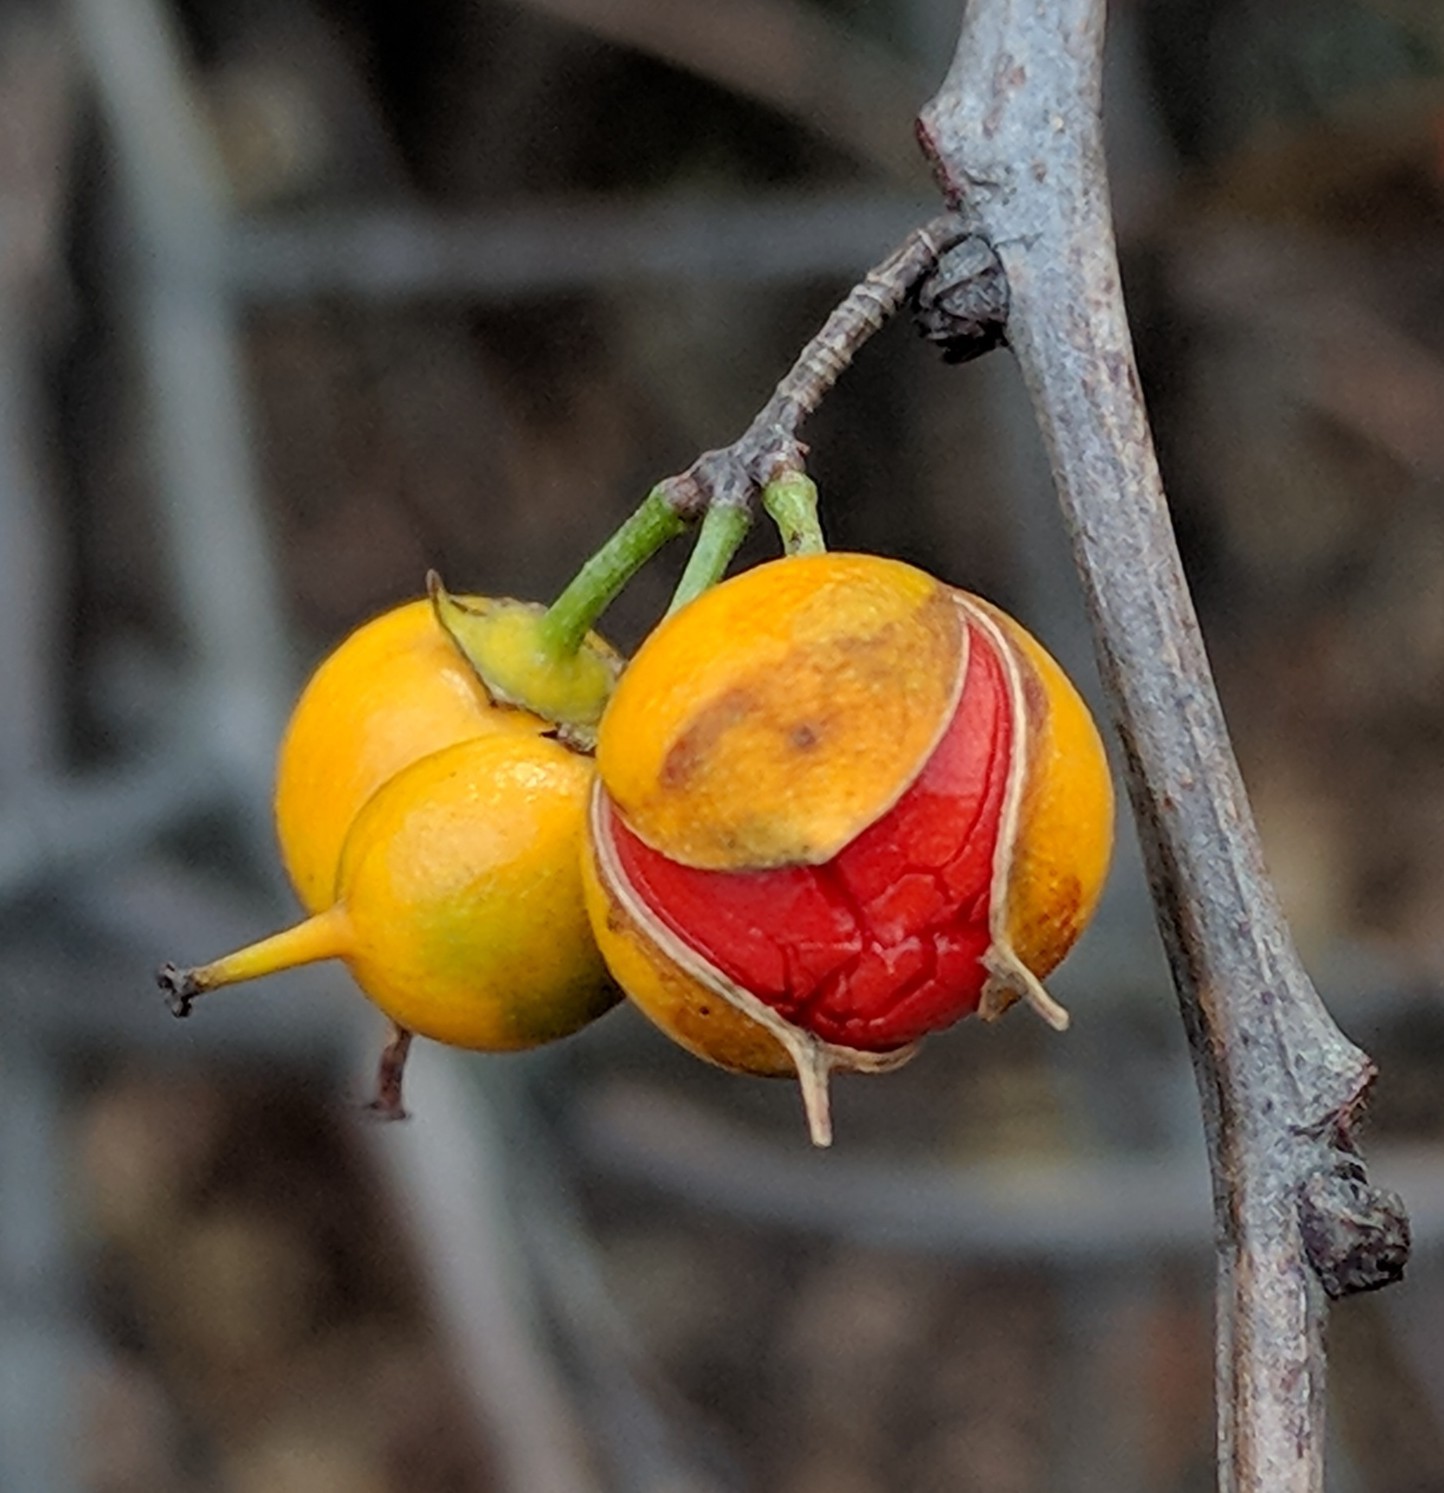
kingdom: Plantae
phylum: Tracheophyta
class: Magnoliopsida
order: Celastrales
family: Celastraceae
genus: Celastrus
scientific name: Celastrus orbiculatus
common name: Oriental bittersweet
